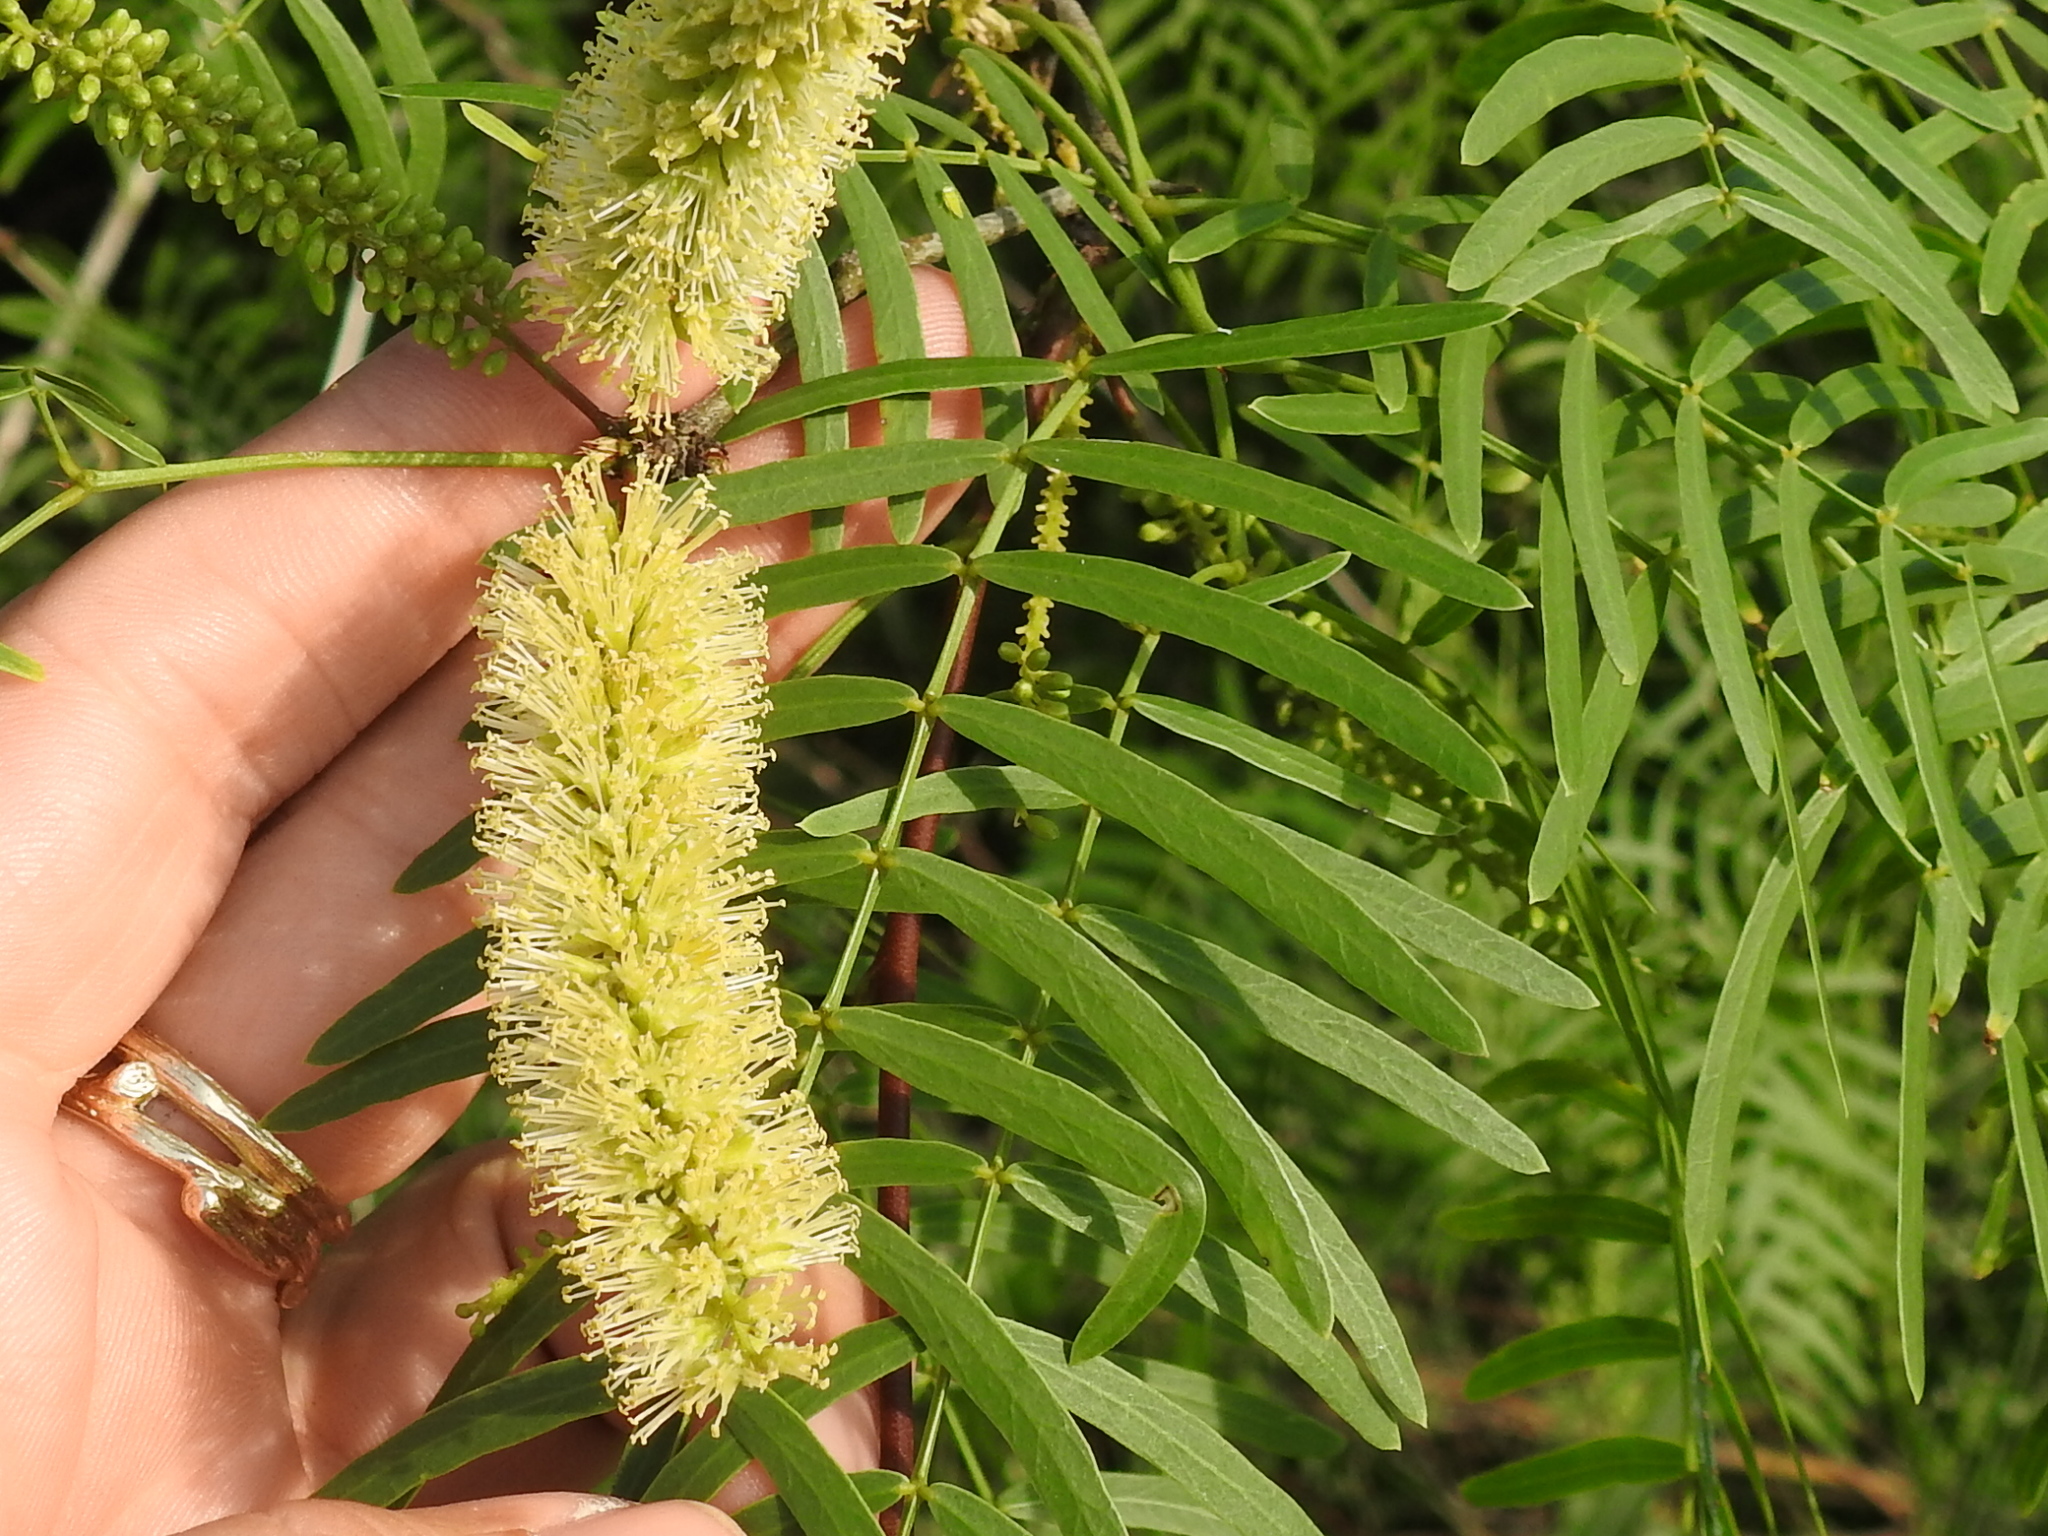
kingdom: Plantae
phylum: Tracheophyta
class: Magnoliopsida
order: Fabales
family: Fabaceae
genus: Prosopis
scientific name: Prosopis glandulosa
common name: Honey mesquite
